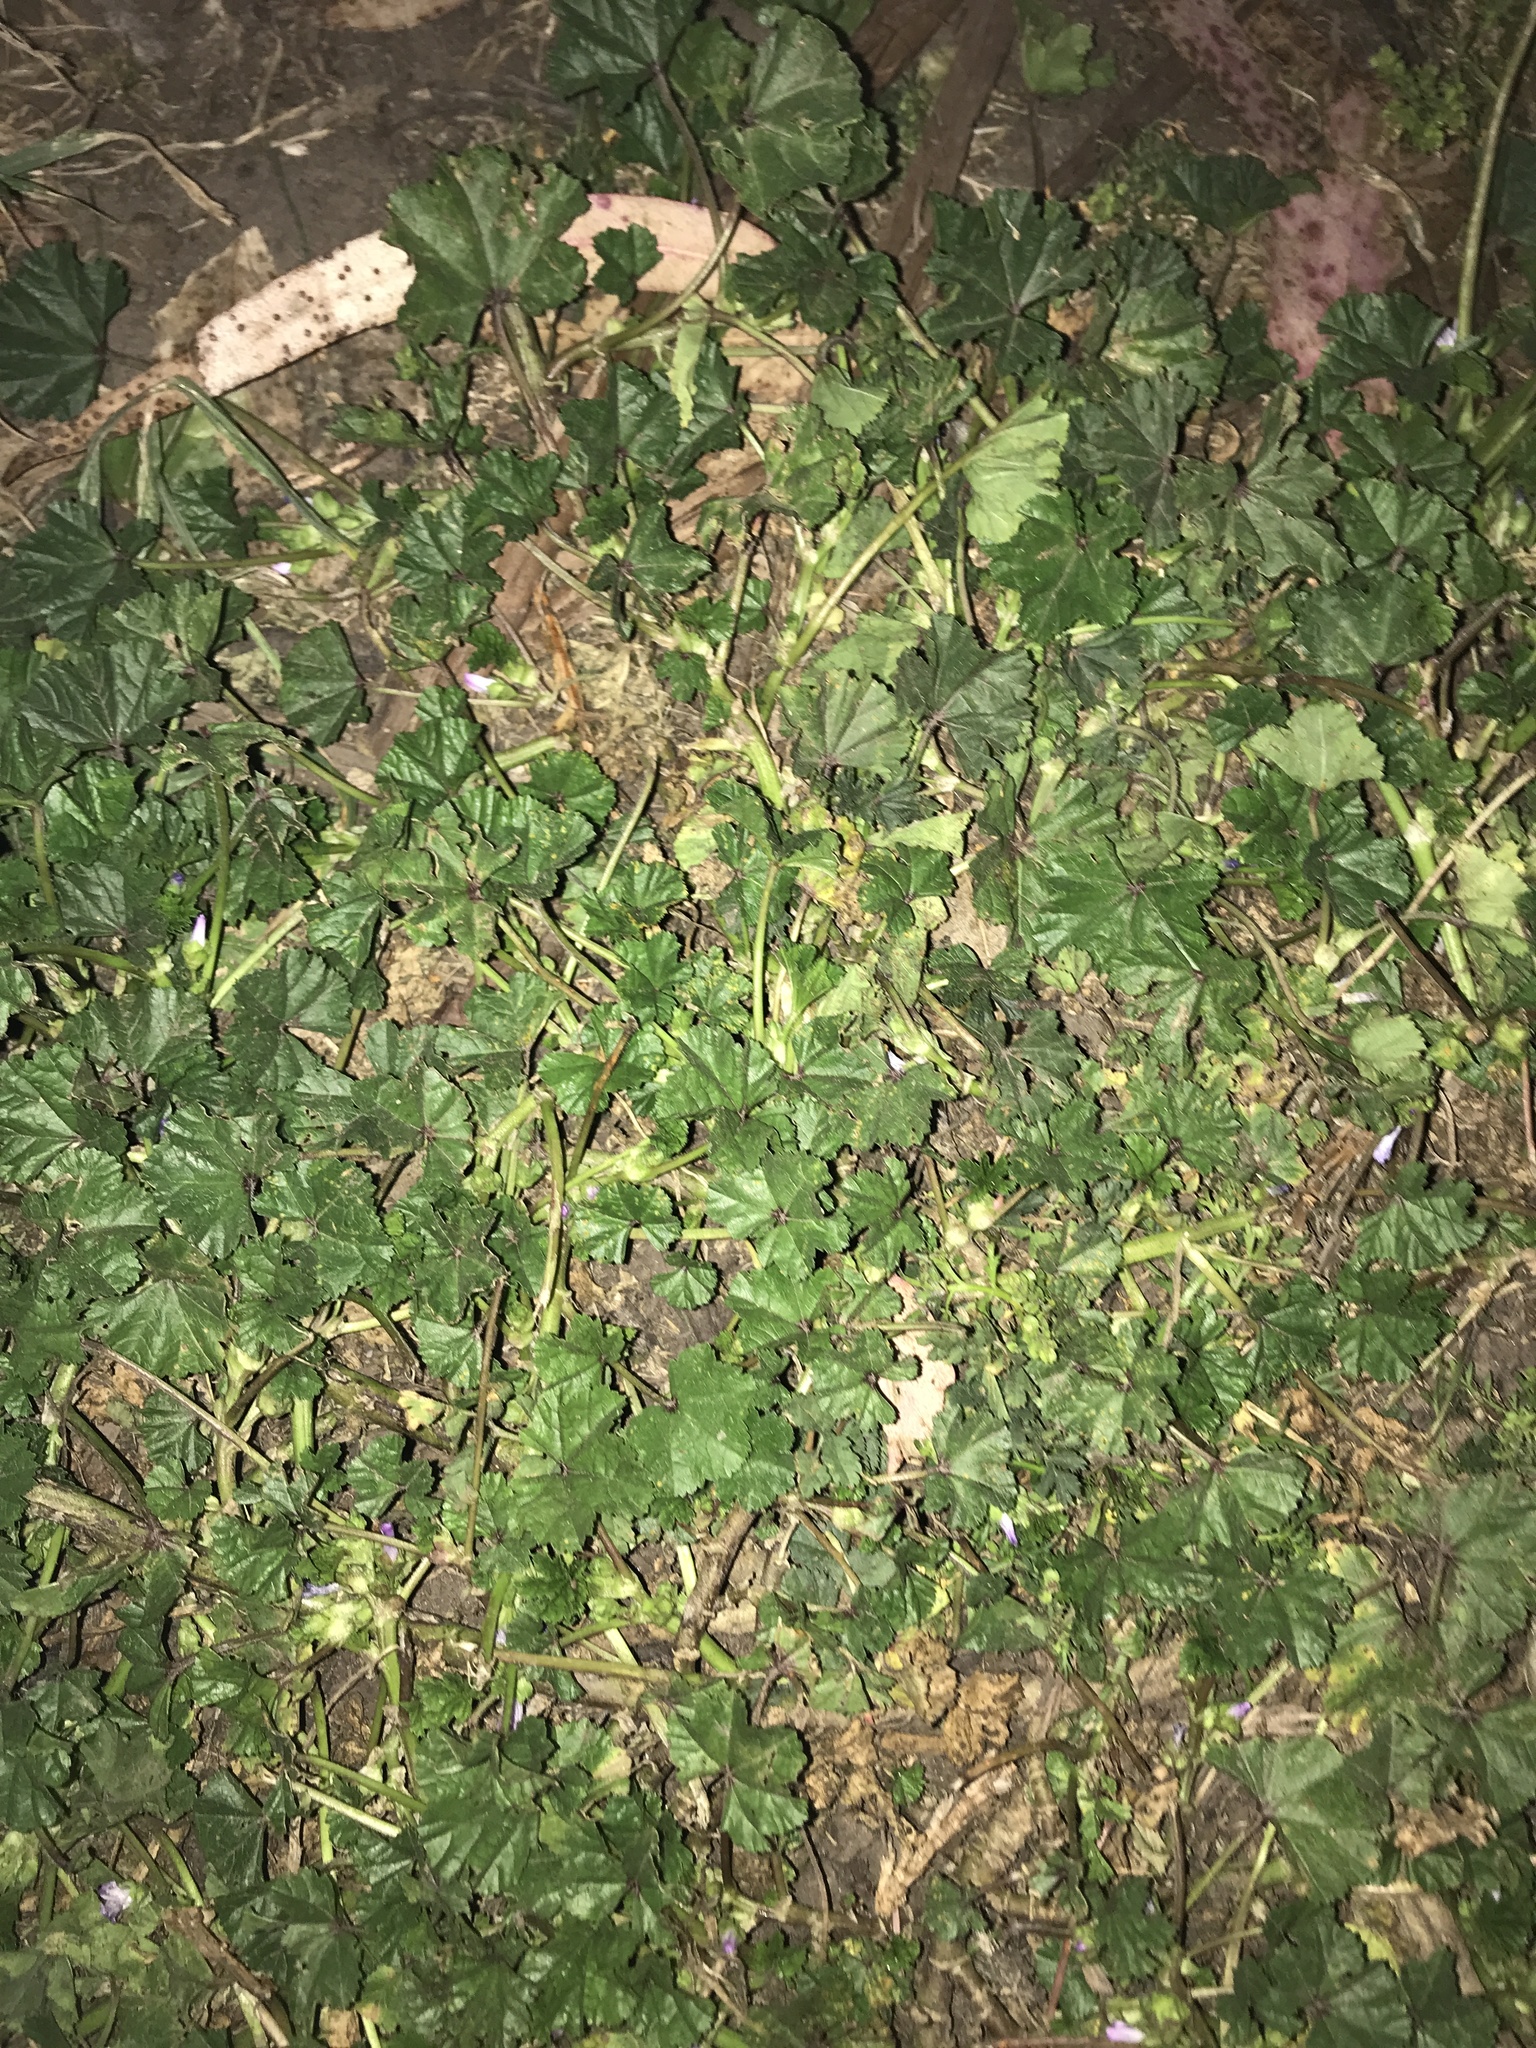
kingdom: Plantae
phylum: Tracheophyta
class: Magnoliopsida
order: Malvales
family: Malvaceae
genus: Malva
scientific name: Malva
